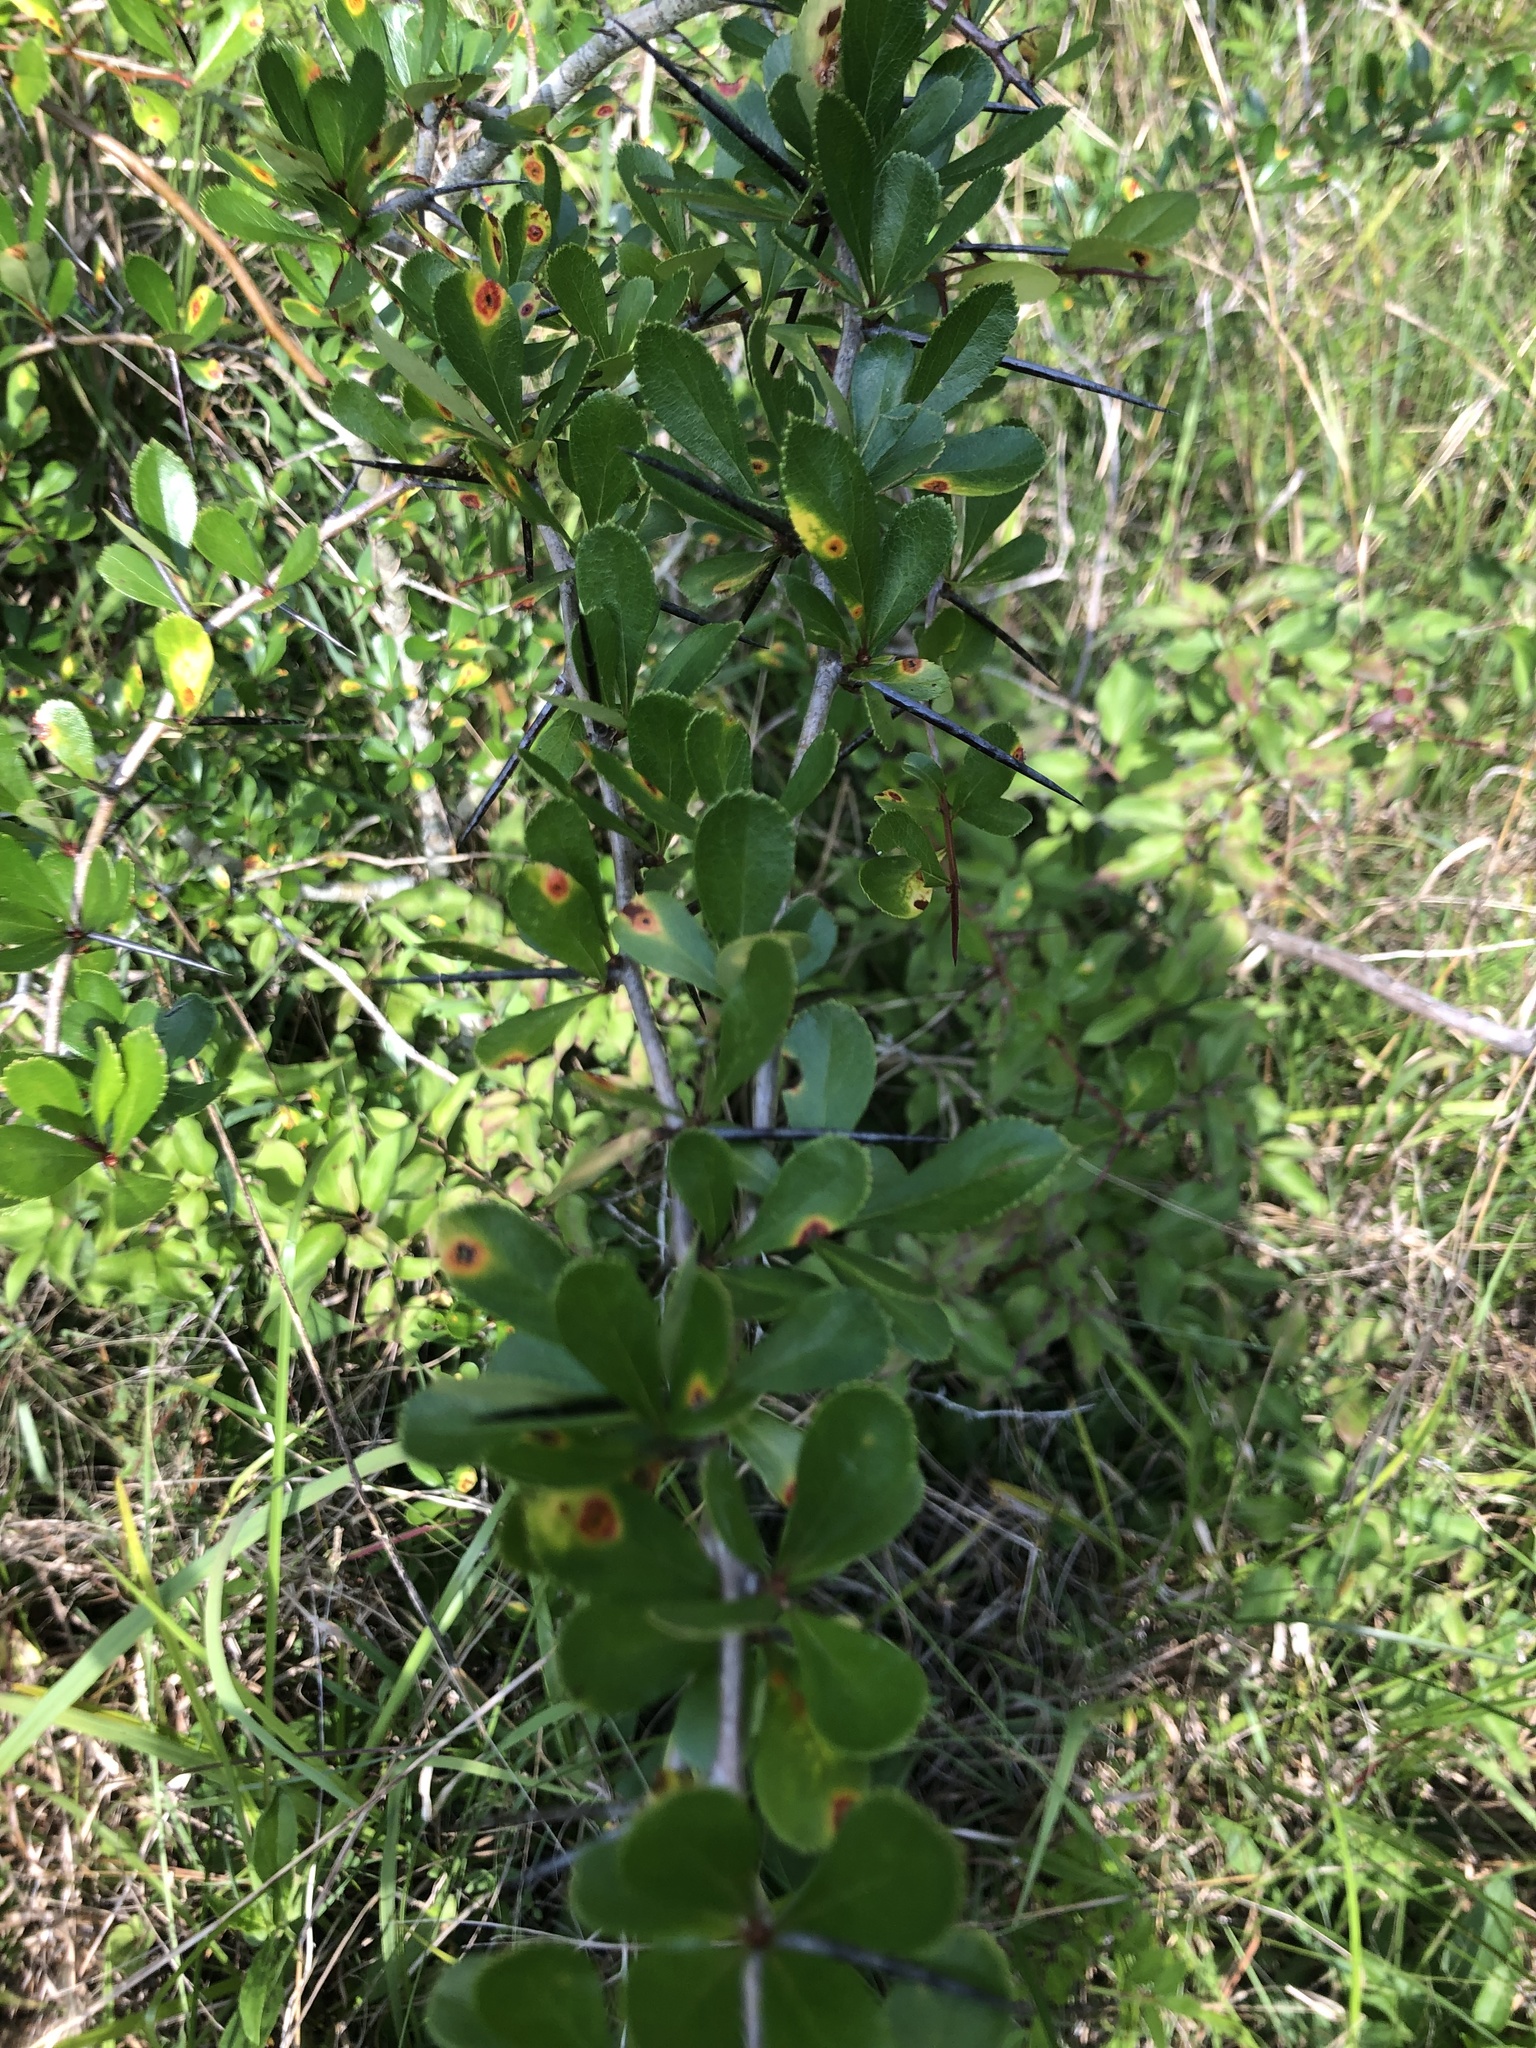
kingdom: Plantae
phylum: Tracheophyta
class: Magnoliopsida
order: Rosales
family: Rosaceae
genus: Crataegus
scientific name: Crataegus berberifolia
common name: Barberry hawthorn
